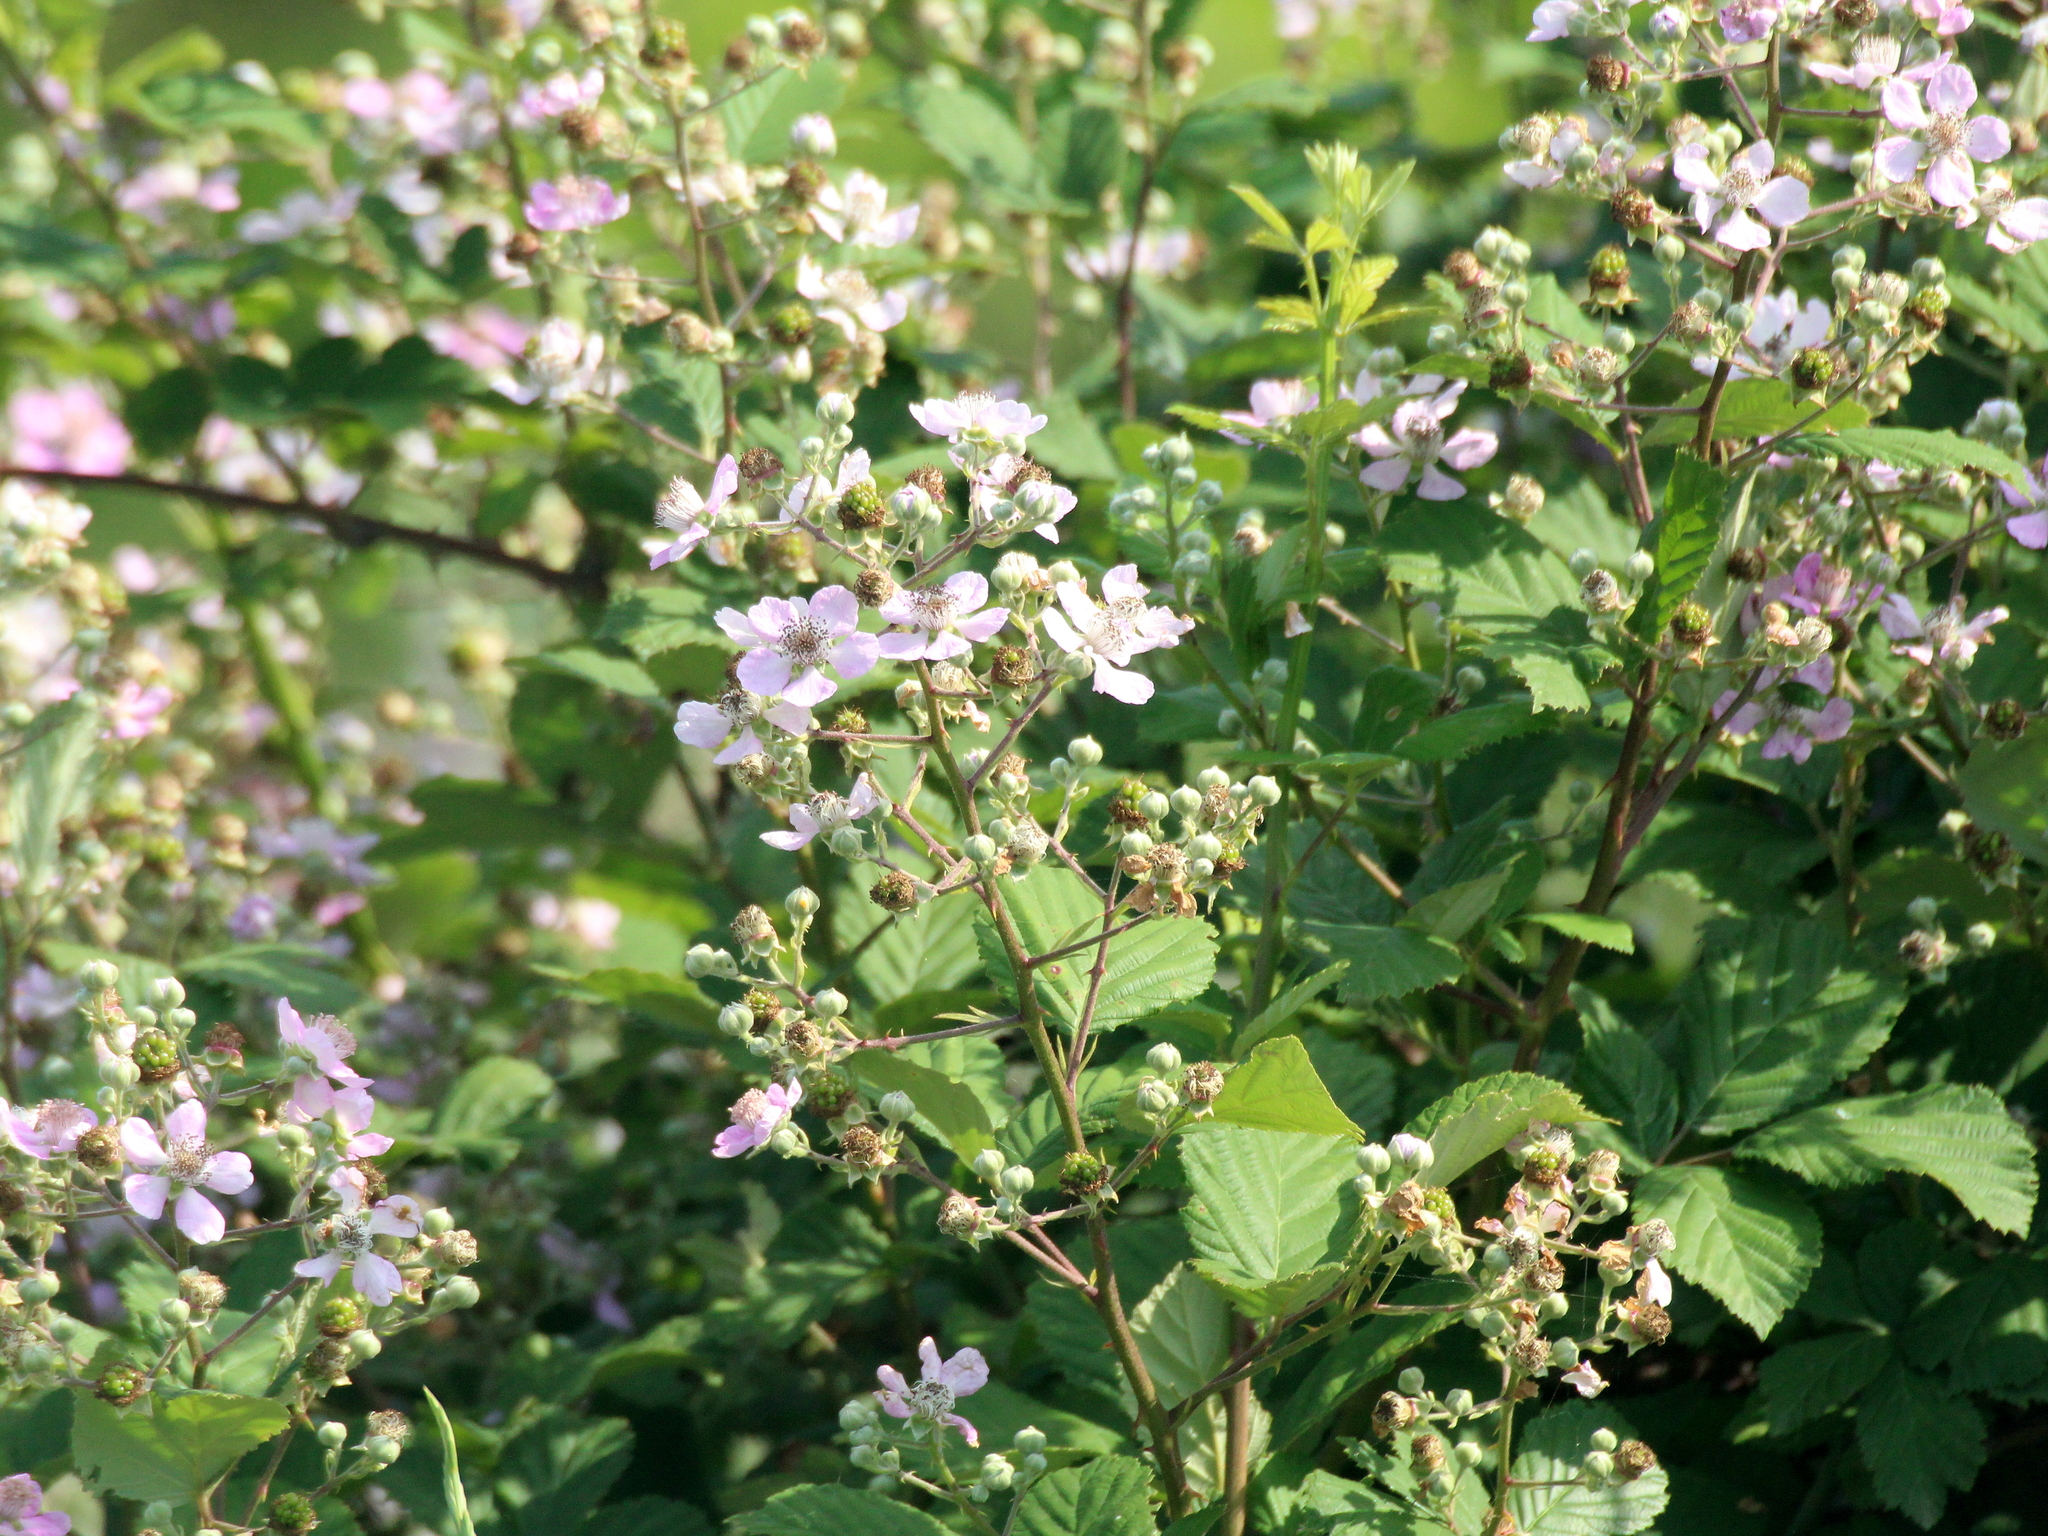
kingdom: Plantae
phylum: Tracheophyta
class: Magnoliopsida
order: Rosales
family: Rosaceae
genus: Rubus
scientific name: Rubus sanctus
